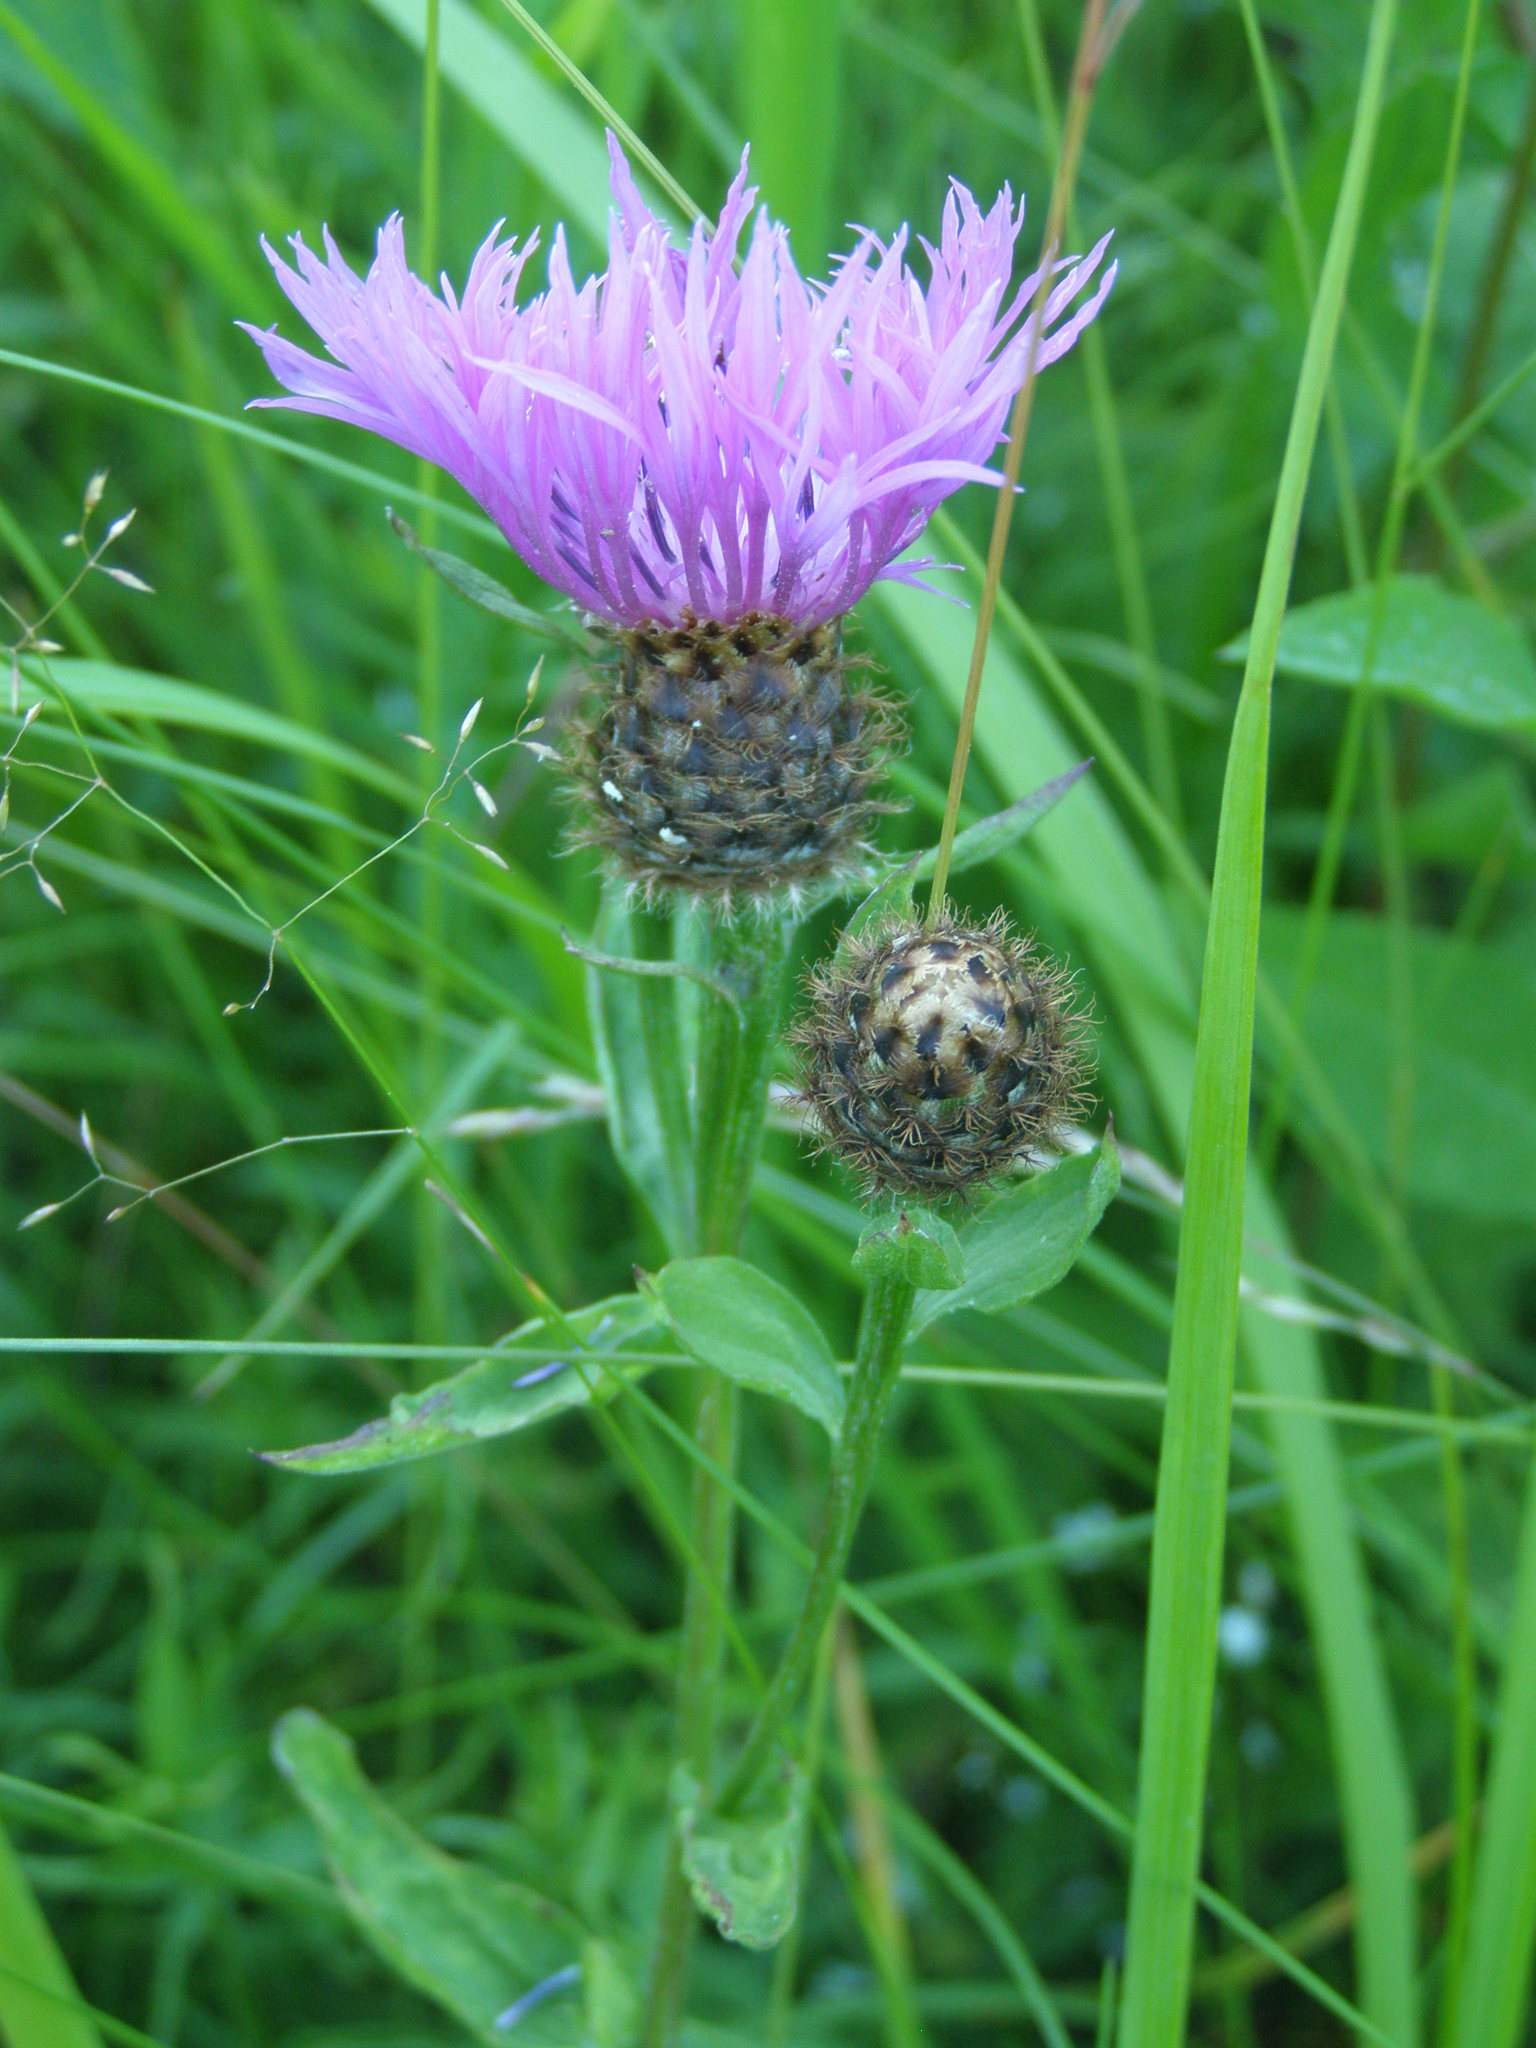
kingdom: Plantae
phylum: Tracheophyta
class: Magnoliopsida
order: Asterales
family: Asteraceae
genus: Centaurea
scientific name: Centaurea phrygia
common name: Wig knapweed
